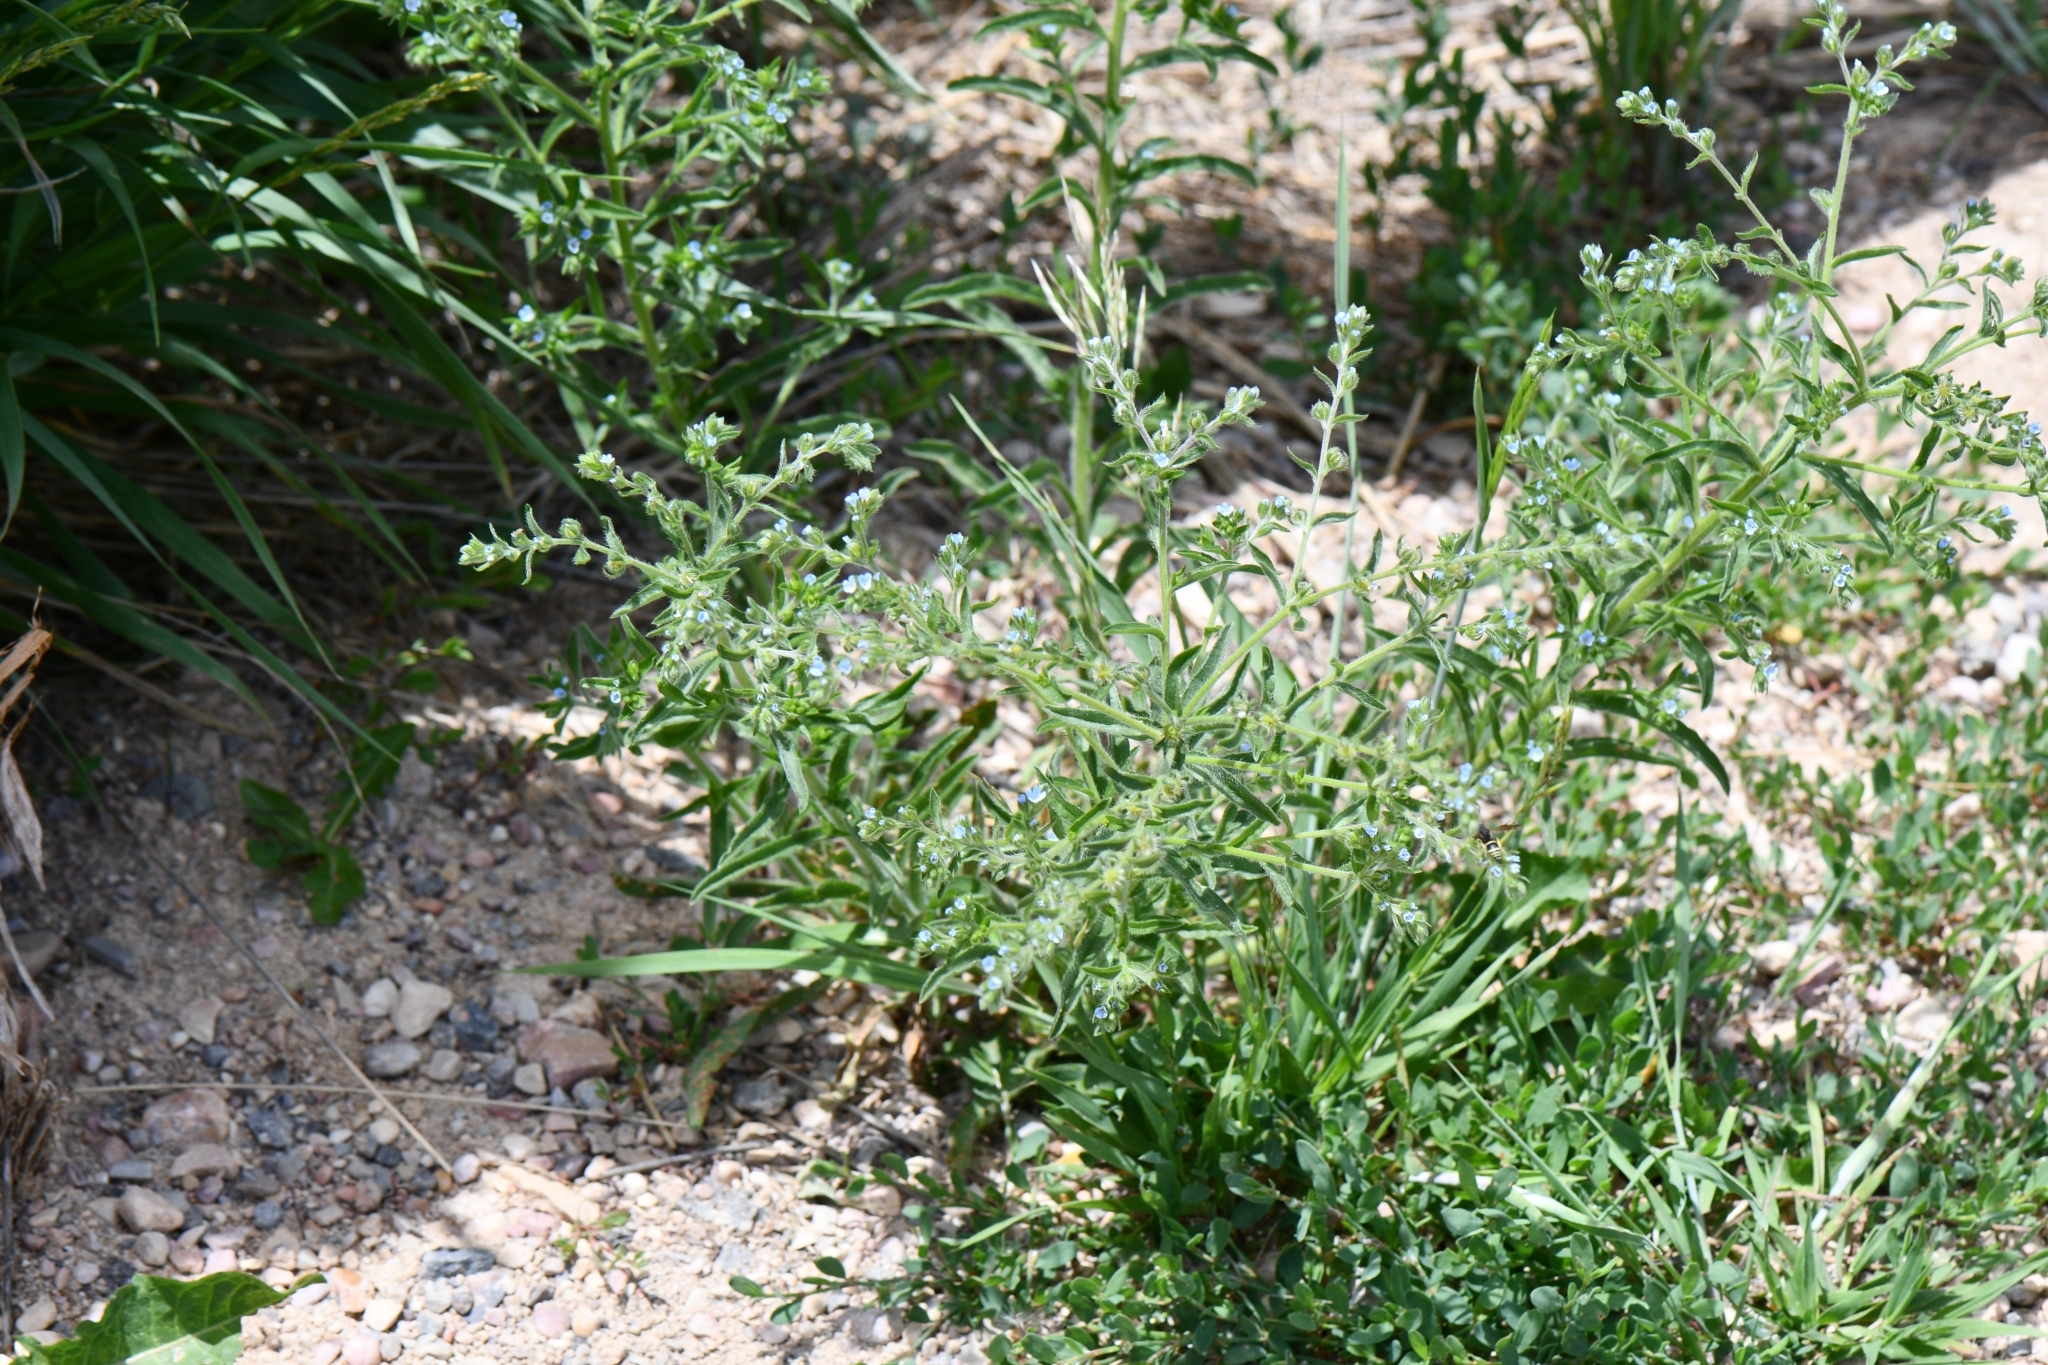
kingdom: Plantae
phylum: Tracheophyta
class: Magnoliopsida
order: Boraginales
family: Boraginaceae
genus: Lappula
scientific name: Lappula occidentalis
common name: Western stickseed
